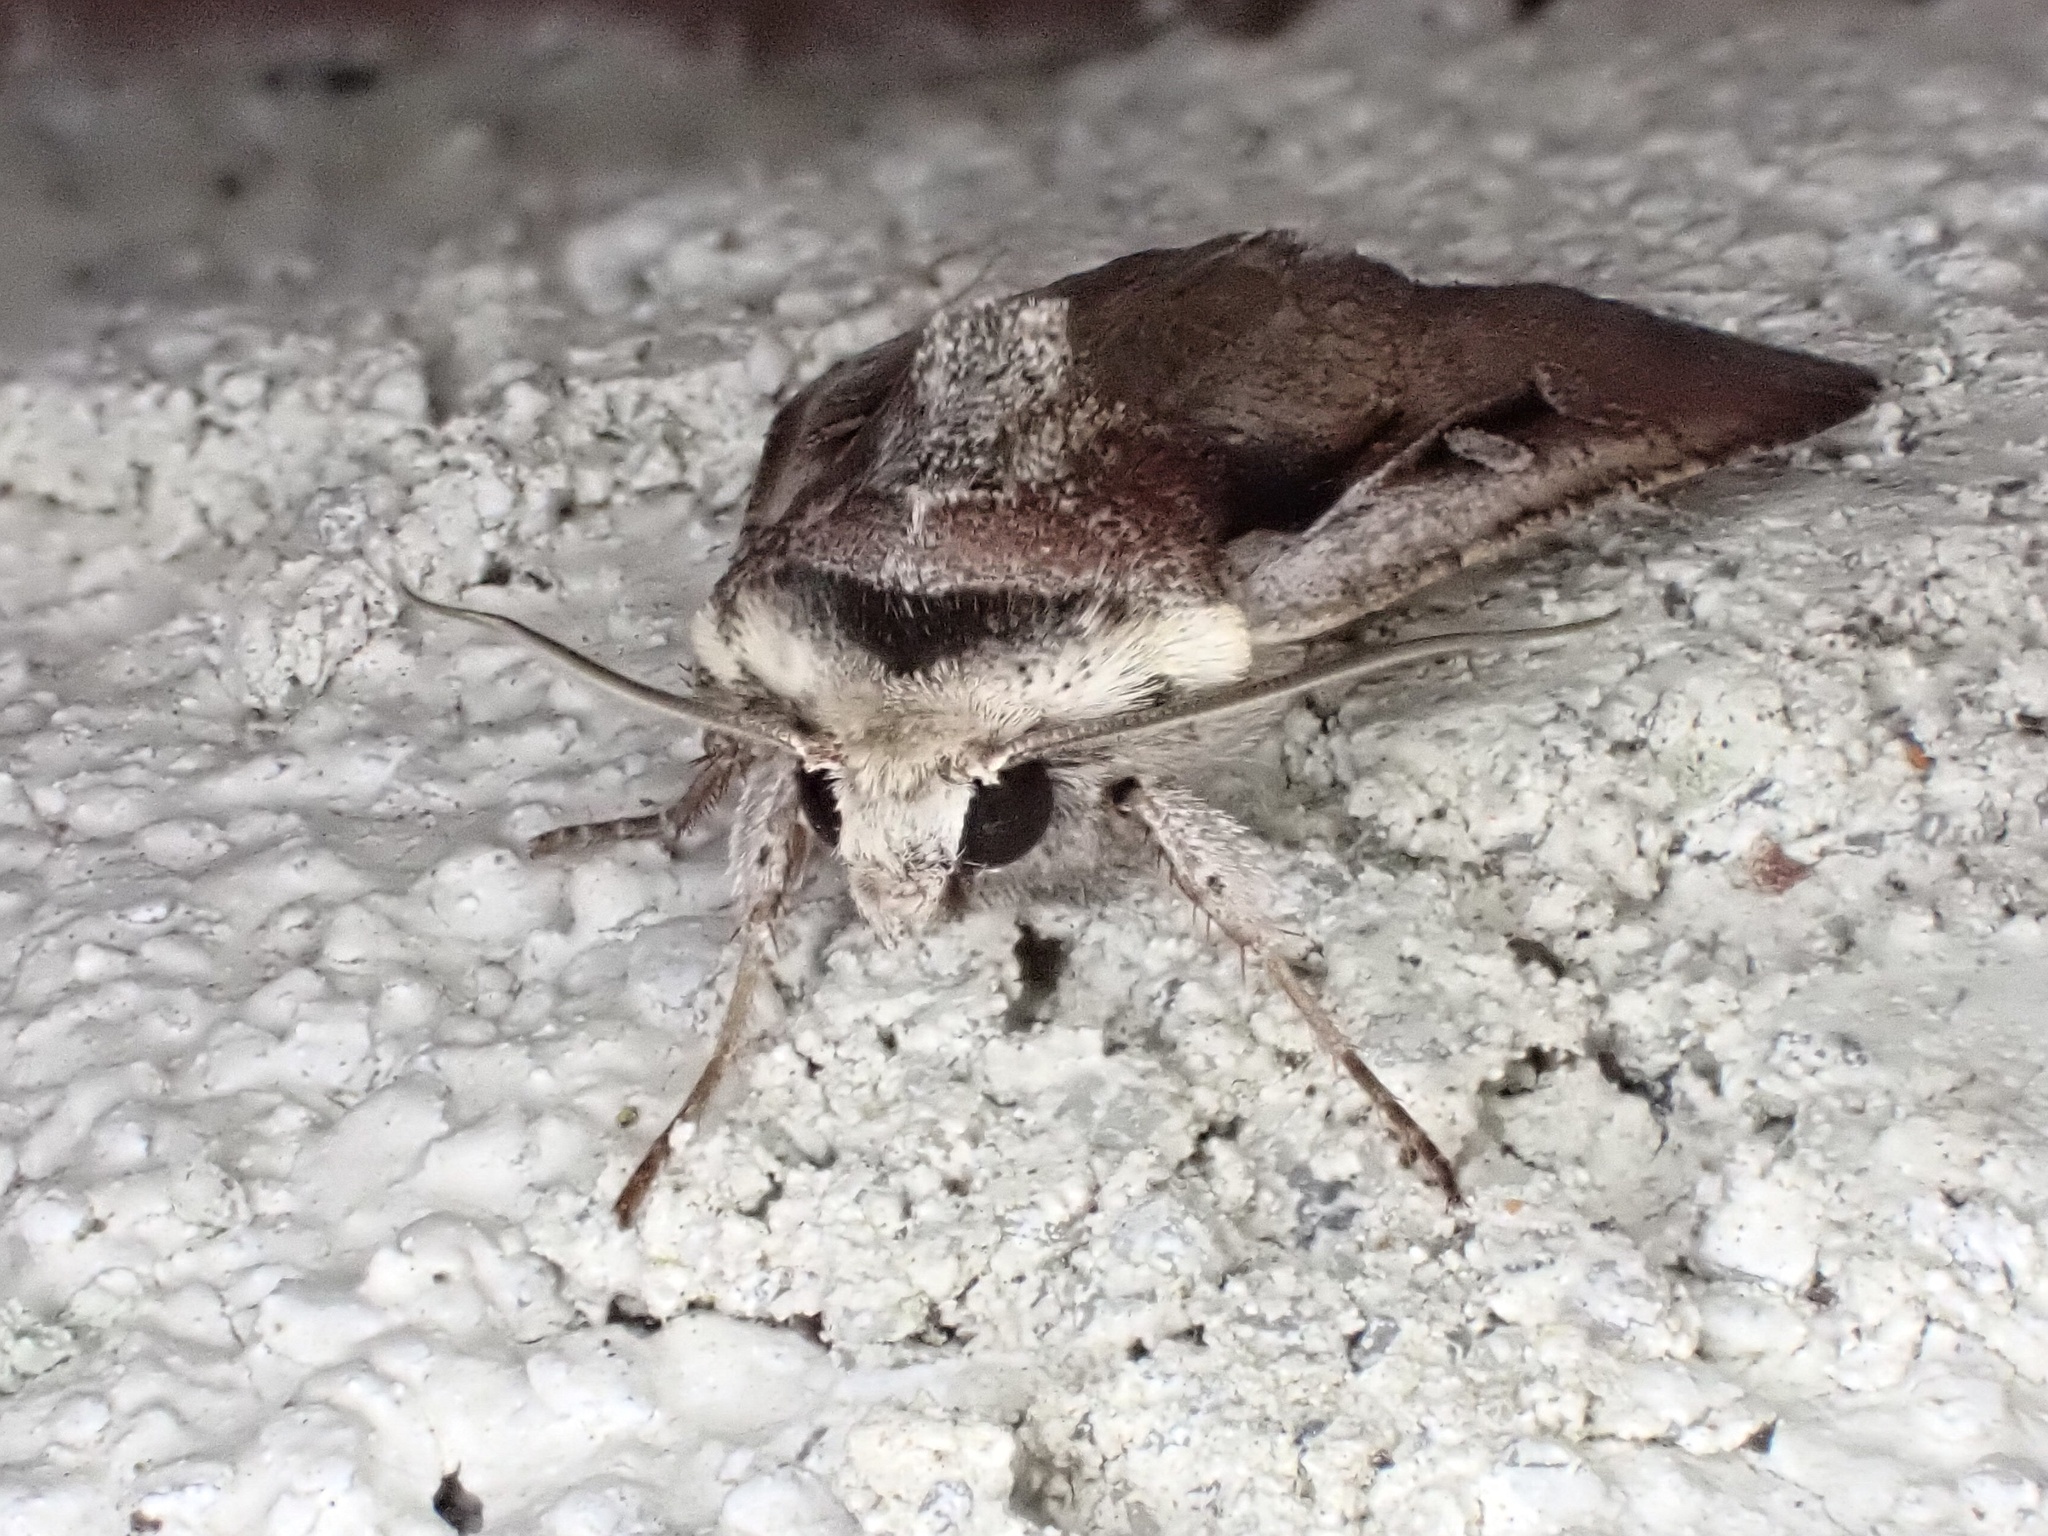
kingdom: Animalia
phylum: Arthropoda
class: Insecta
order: Lepidoptera
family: Noctuidae
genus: Hemieuxoa
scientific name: Hemieuxoa rudens
